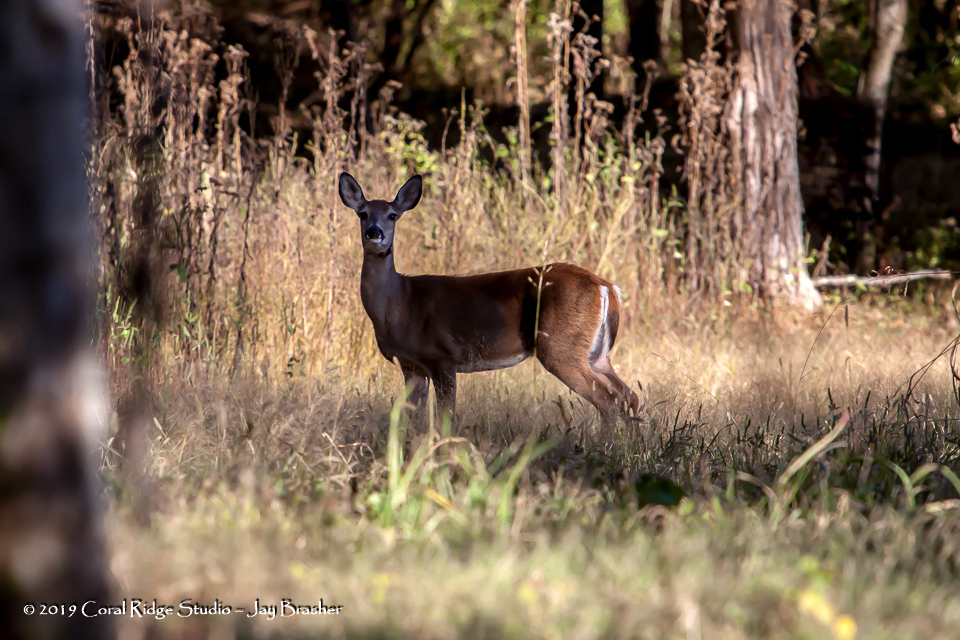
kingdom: Animalia
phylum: Chordata
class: Mammalia
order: Artiodactyla
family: Cervidae
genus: Odocoileus
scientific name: Odocoileus virginianus
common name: White-tailed deer
